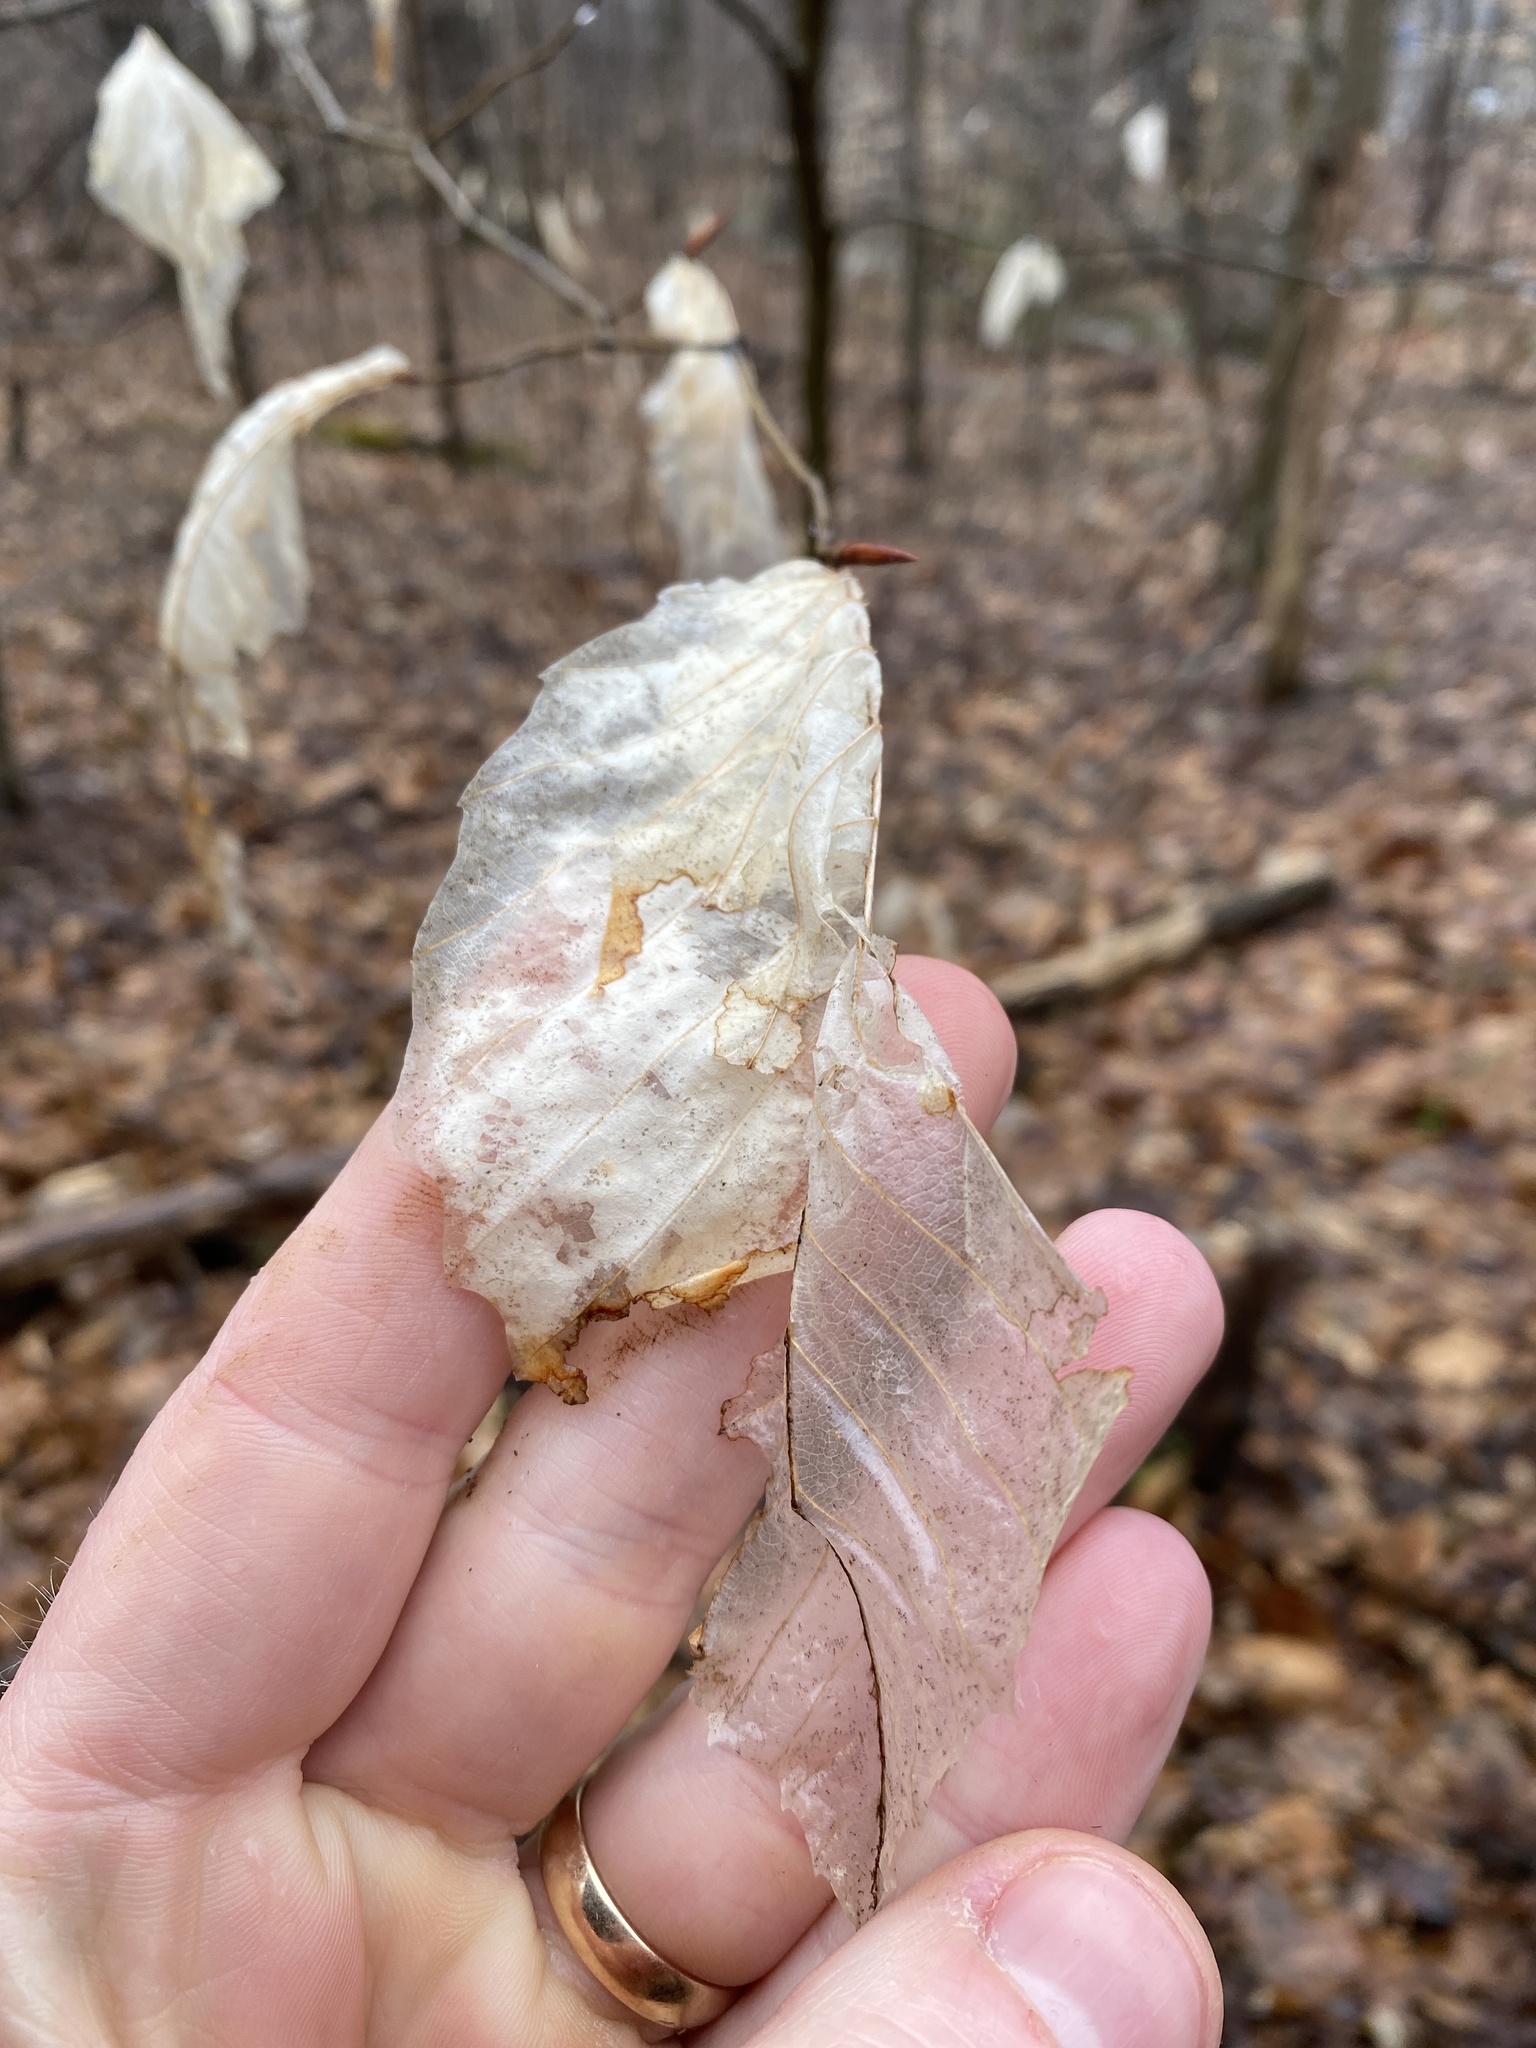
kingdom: Plantae
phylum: Tracheophyta
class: Magnoliopsida
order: Fagales
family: Fagaceae
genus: Fagus
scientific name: Fagus grandifolia
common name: American beech
